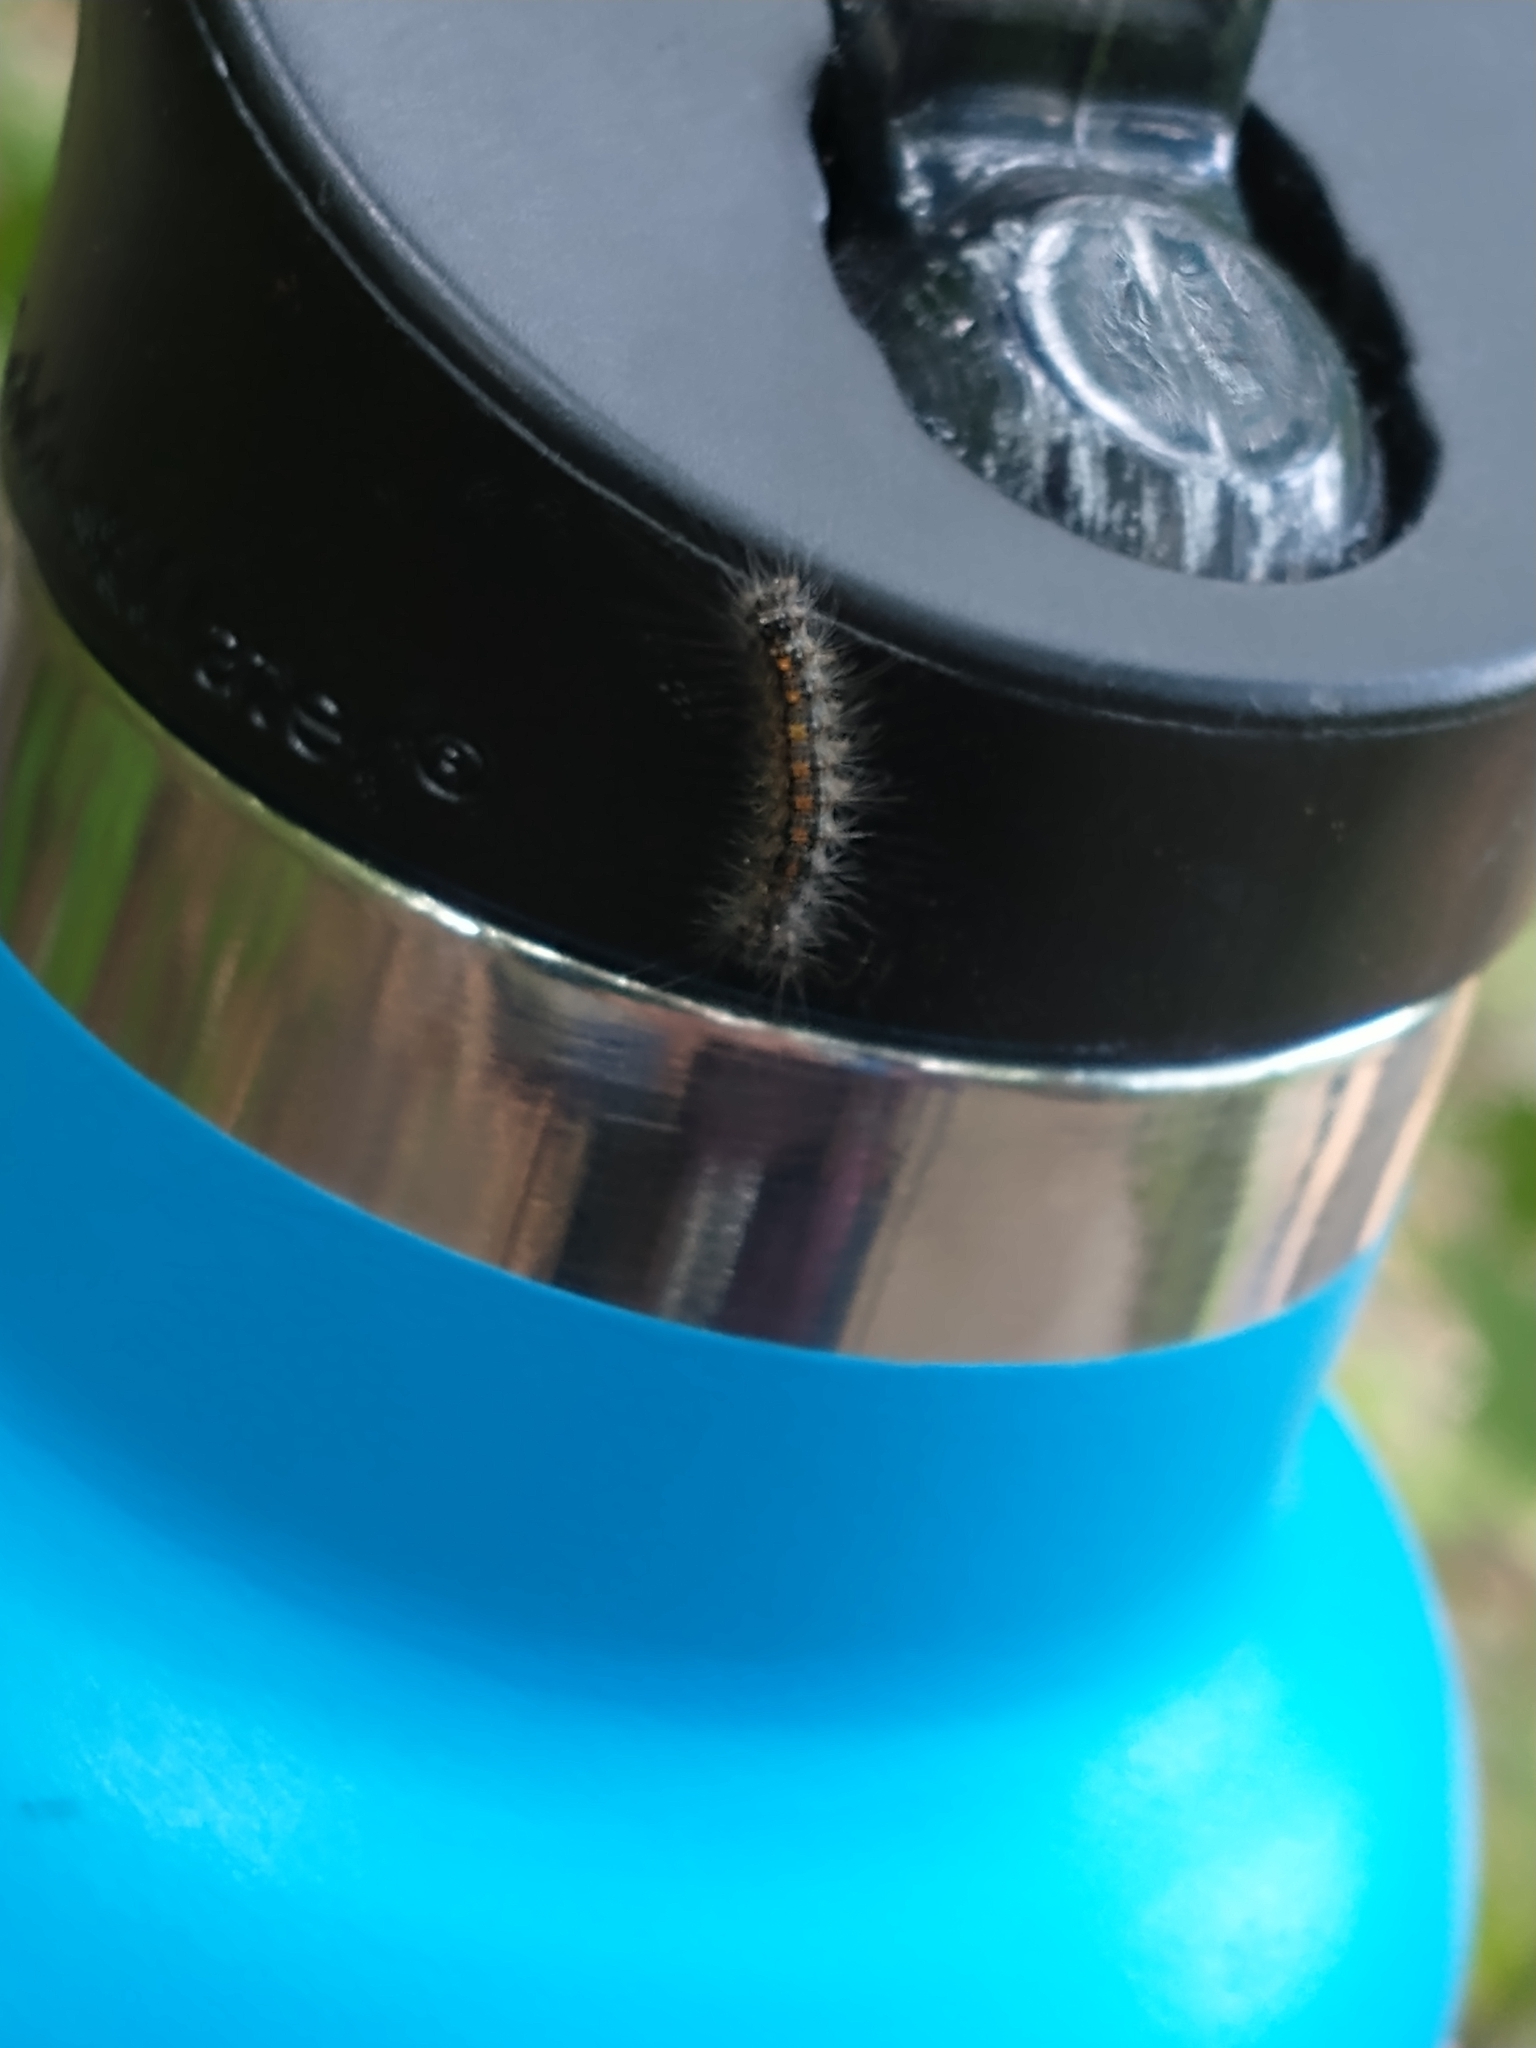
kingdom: Animalia
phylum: Arthropoda
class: Insecta
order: Lepidoptera
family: Erebidae
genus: Lymantria
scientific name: Lymantria dispar
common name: Gypsy moth
